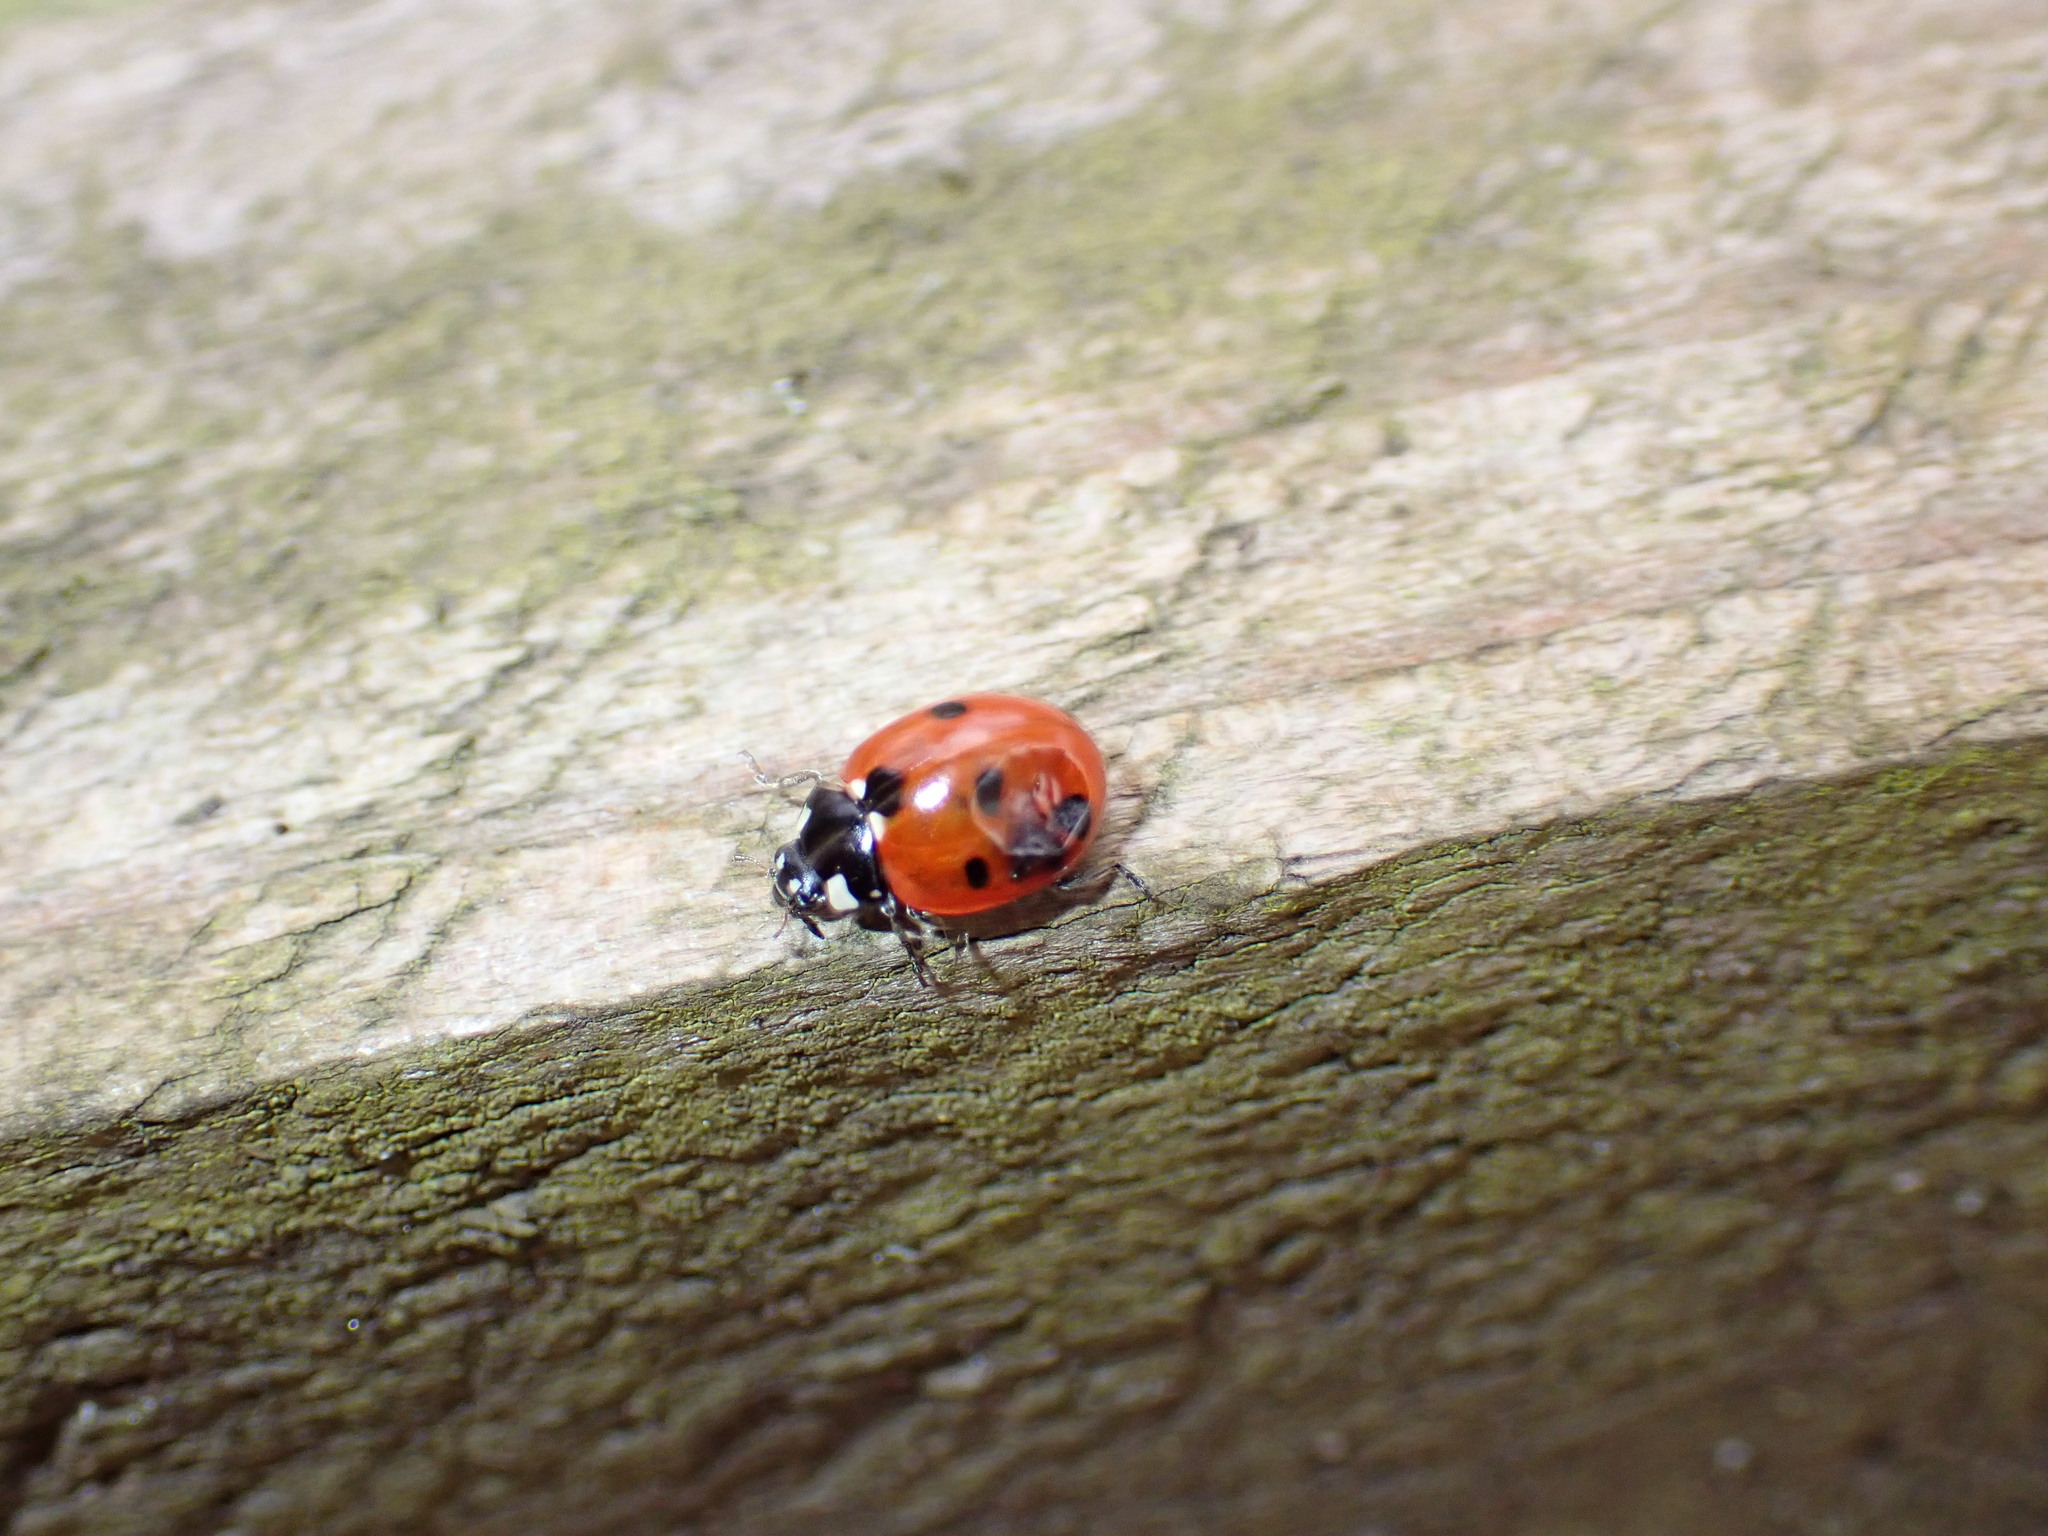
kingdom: Animalia
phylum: Arthropoda
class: Insecta
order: Coleoptera
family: Coccinellidae
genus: Coccinella
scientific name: Coccinella septempunctata
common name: Sevenspotted lady beetle
